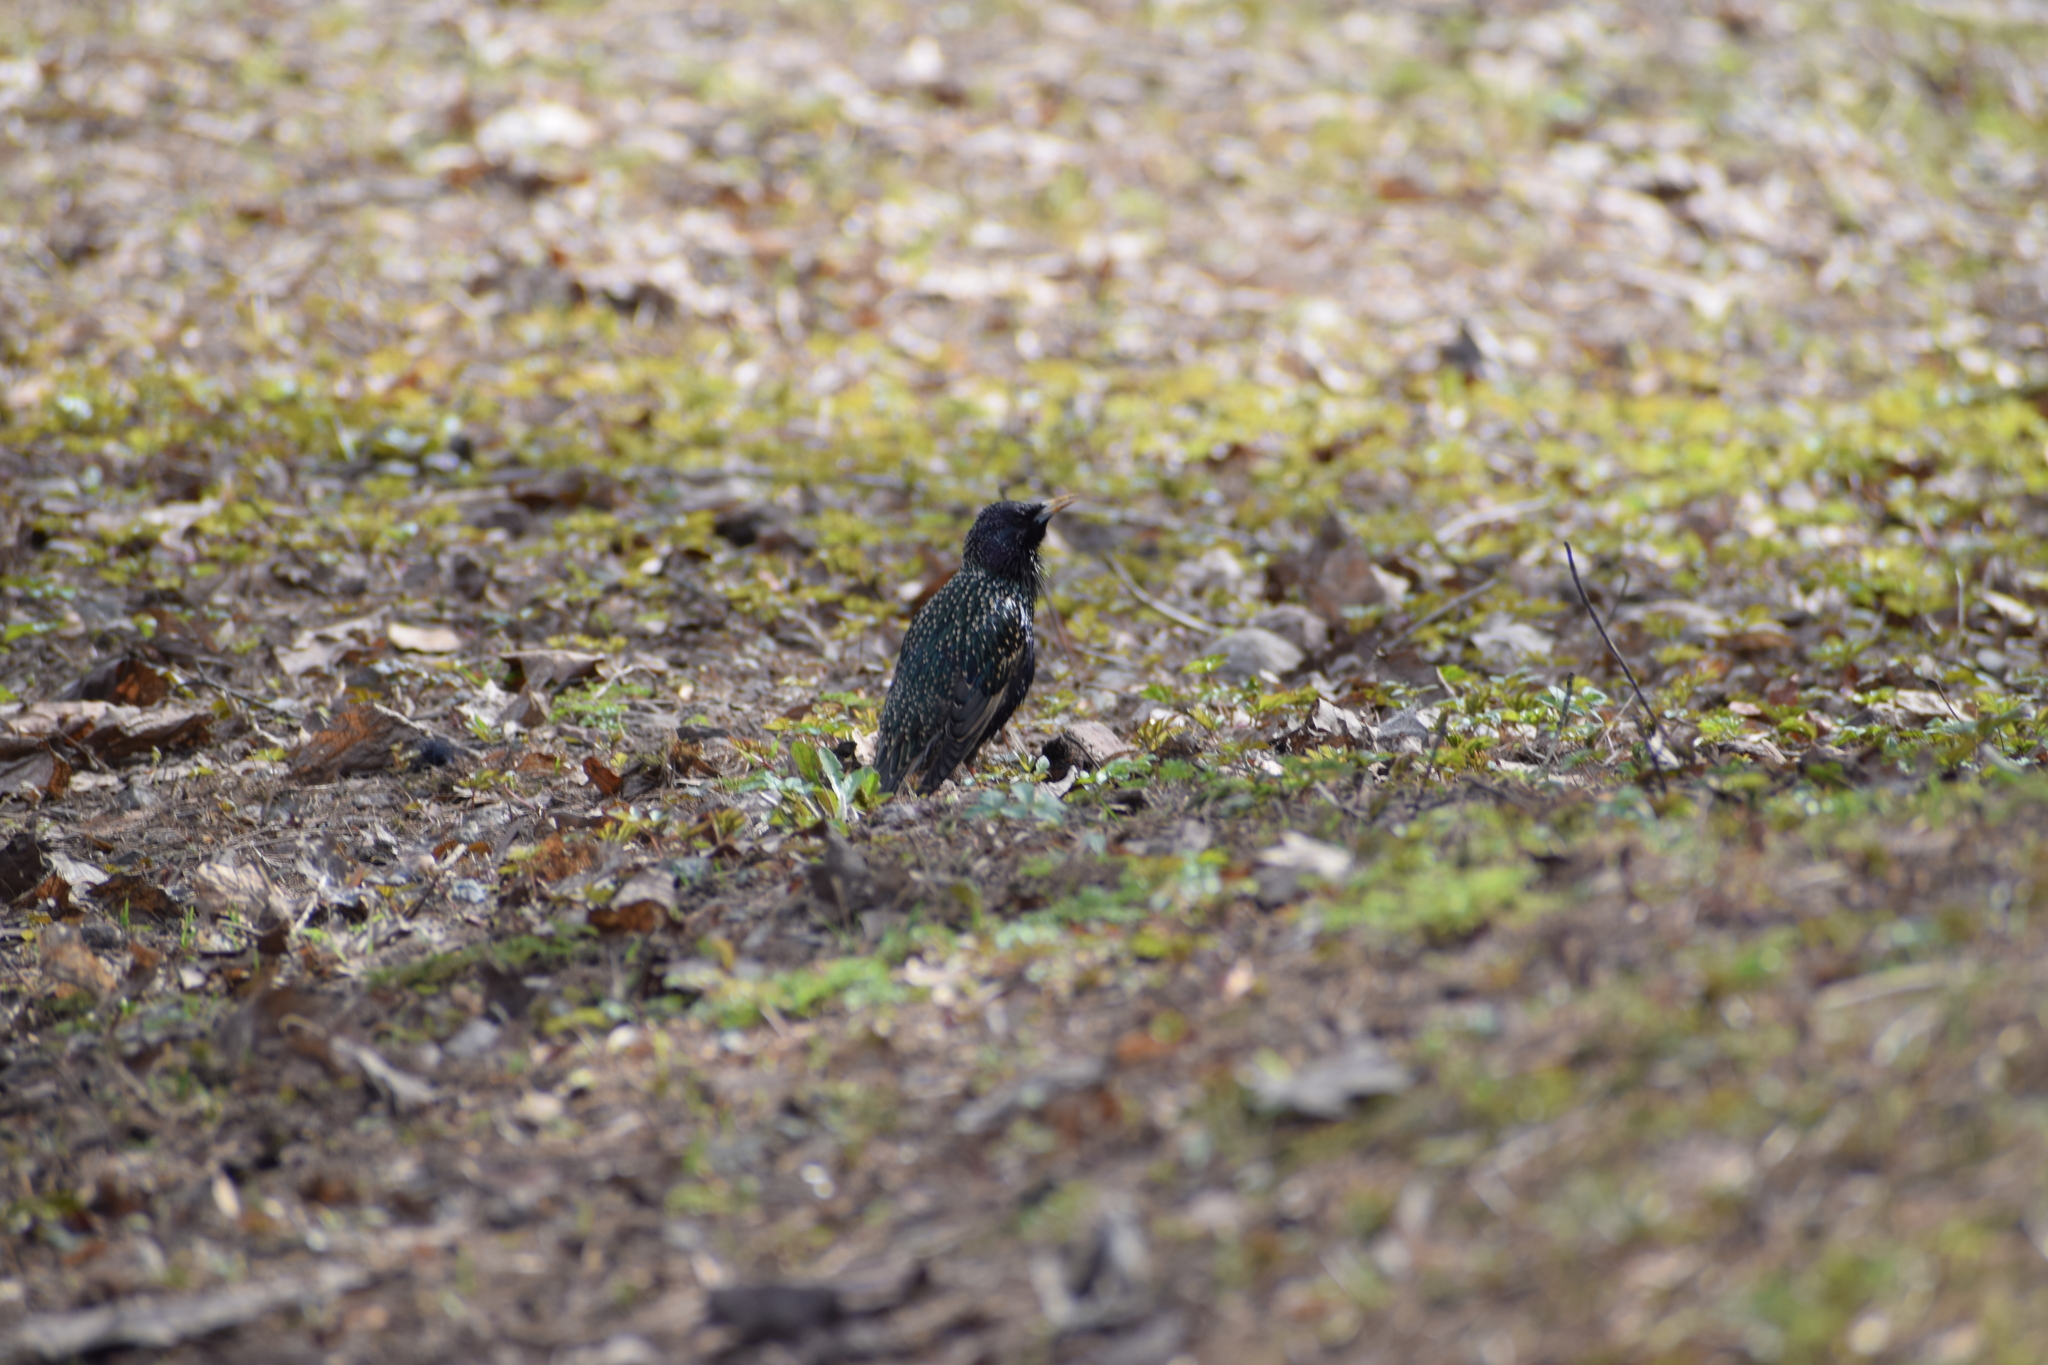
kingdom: Animalia
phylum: Chordata
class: Aves
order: Passeriformes
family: Sturnidae
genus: Sturnus
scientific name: Sturnus vulgaris
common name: Common starling
